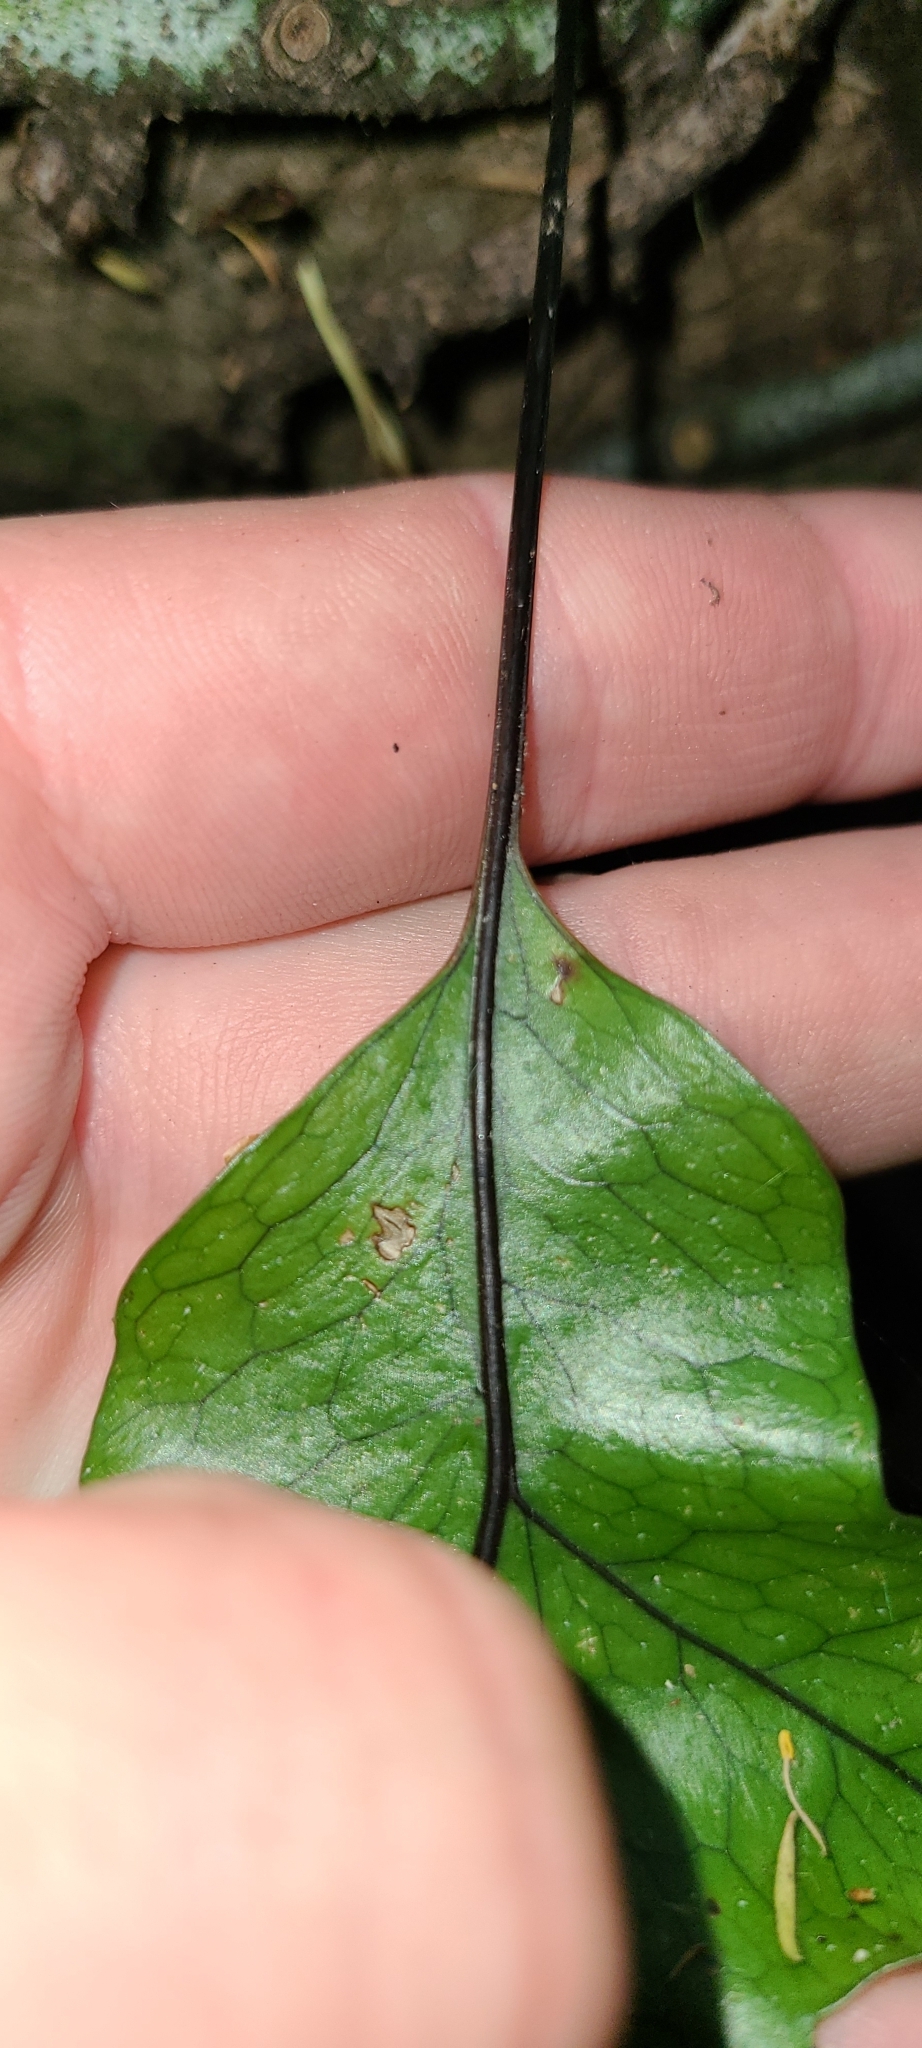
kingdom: Plantae
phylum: Tracheophyta
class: Polypodiopsida
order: Polypodiales
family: Polypodiaceae
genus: Lecanopteris
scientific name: Lecanopteris pustulata
